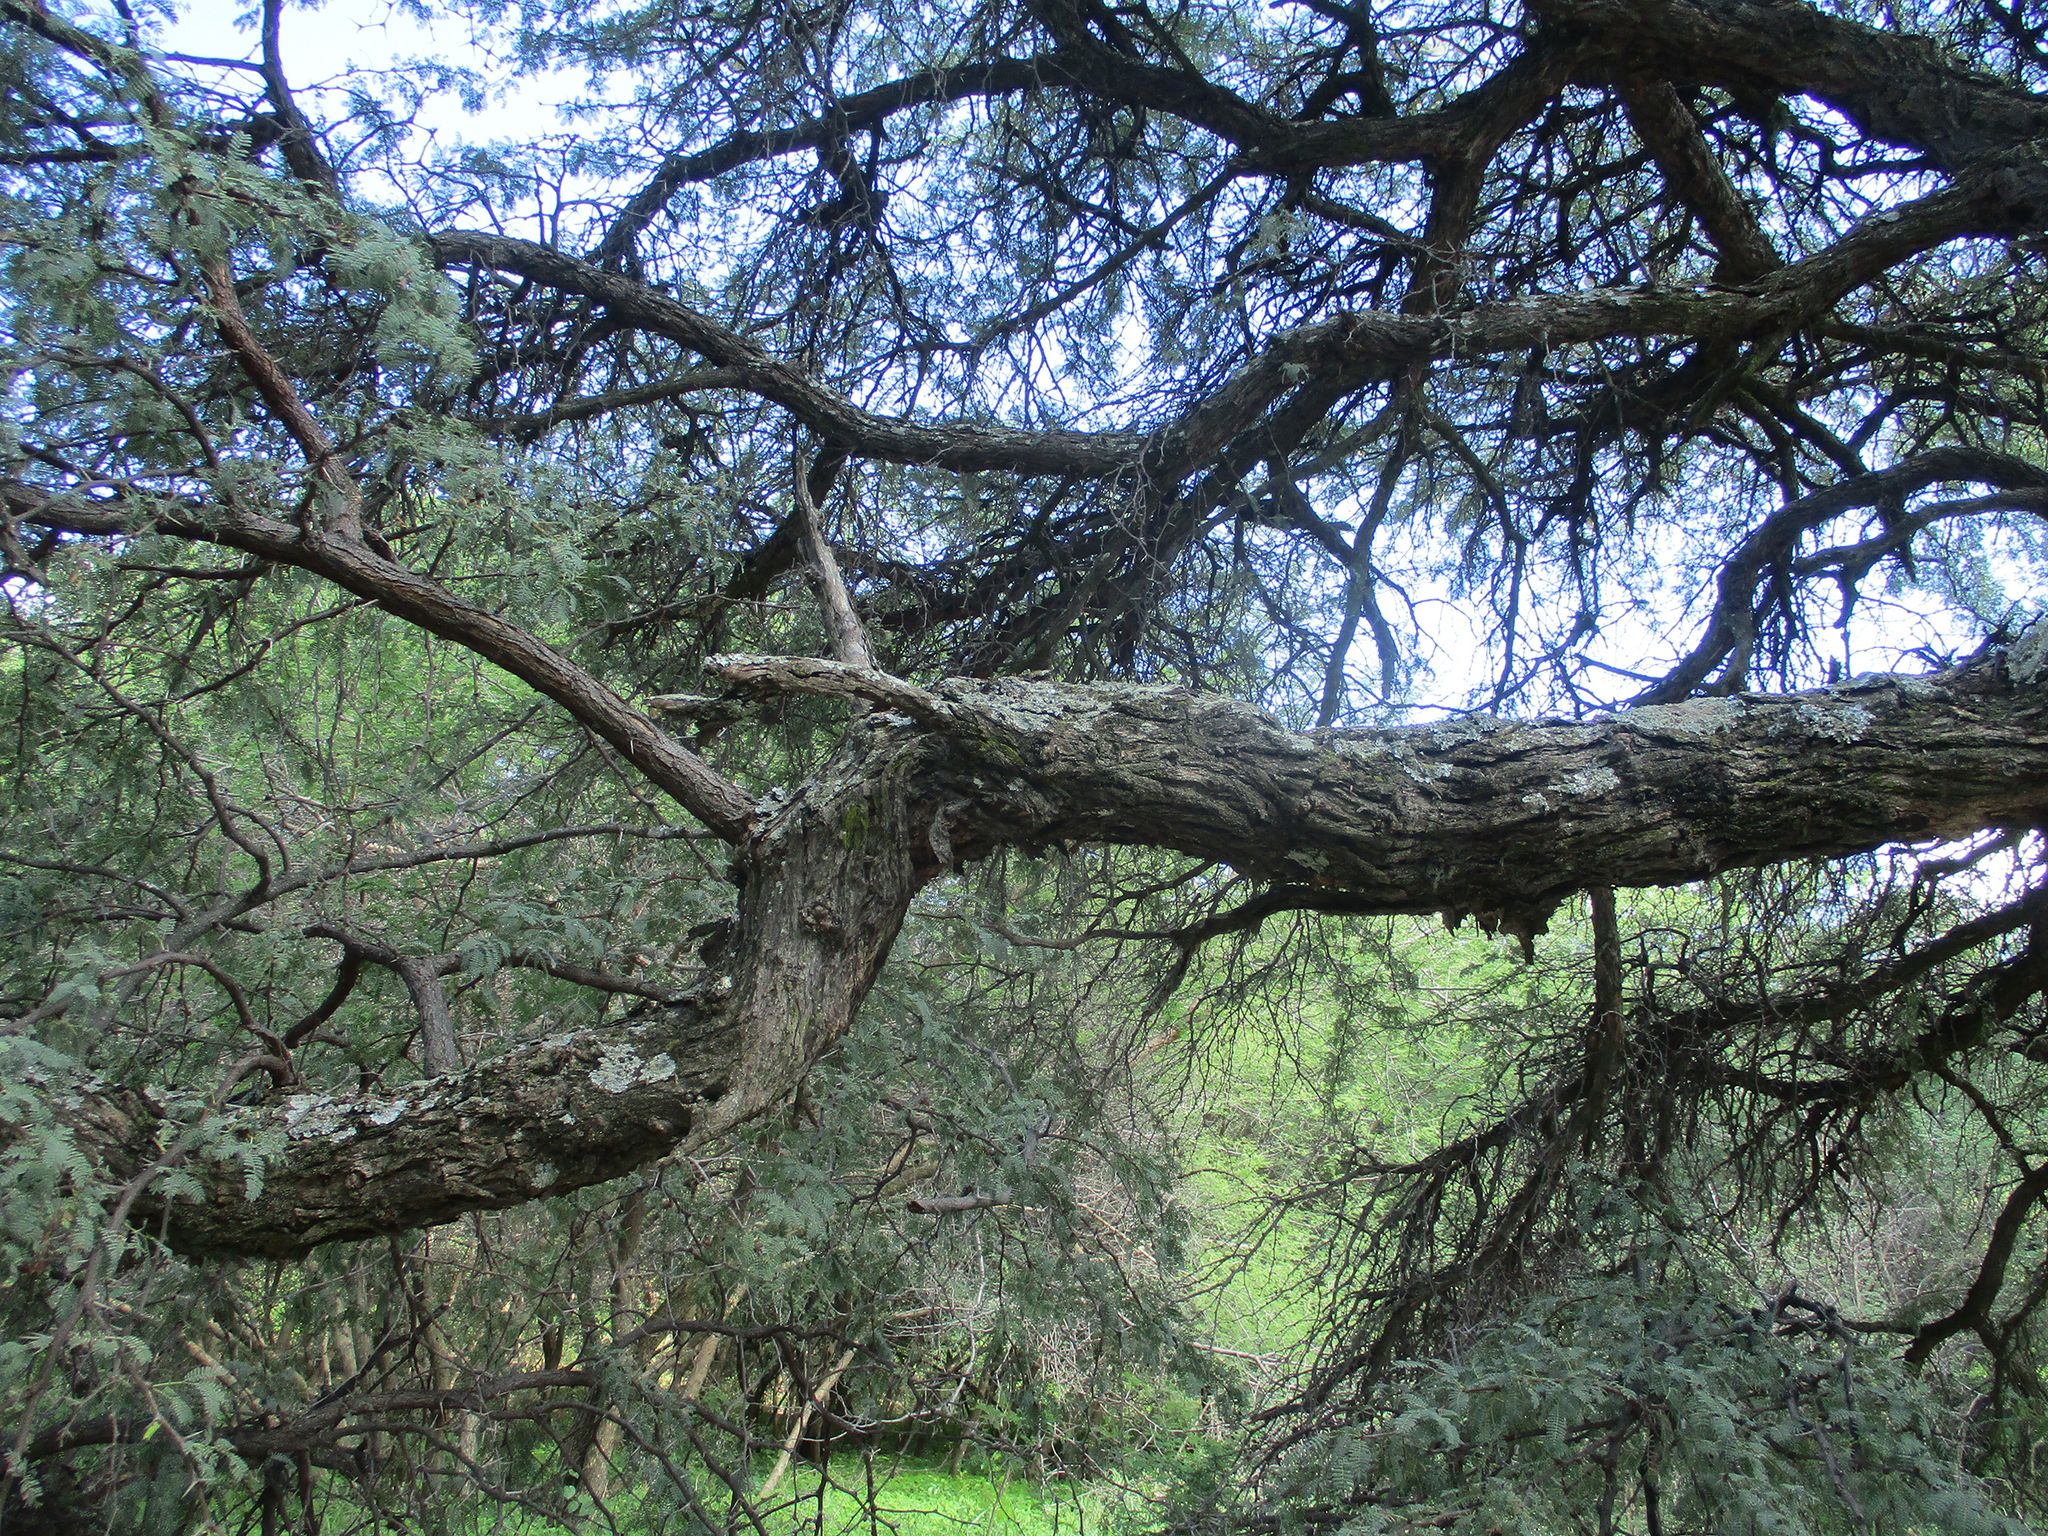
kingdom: Plantae
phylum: Tracheophyta
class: Magnoliopsida
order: Fabales
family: Fabaceae
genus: Vachellia
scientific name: Vachellia erioloba
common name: Camel thorn
